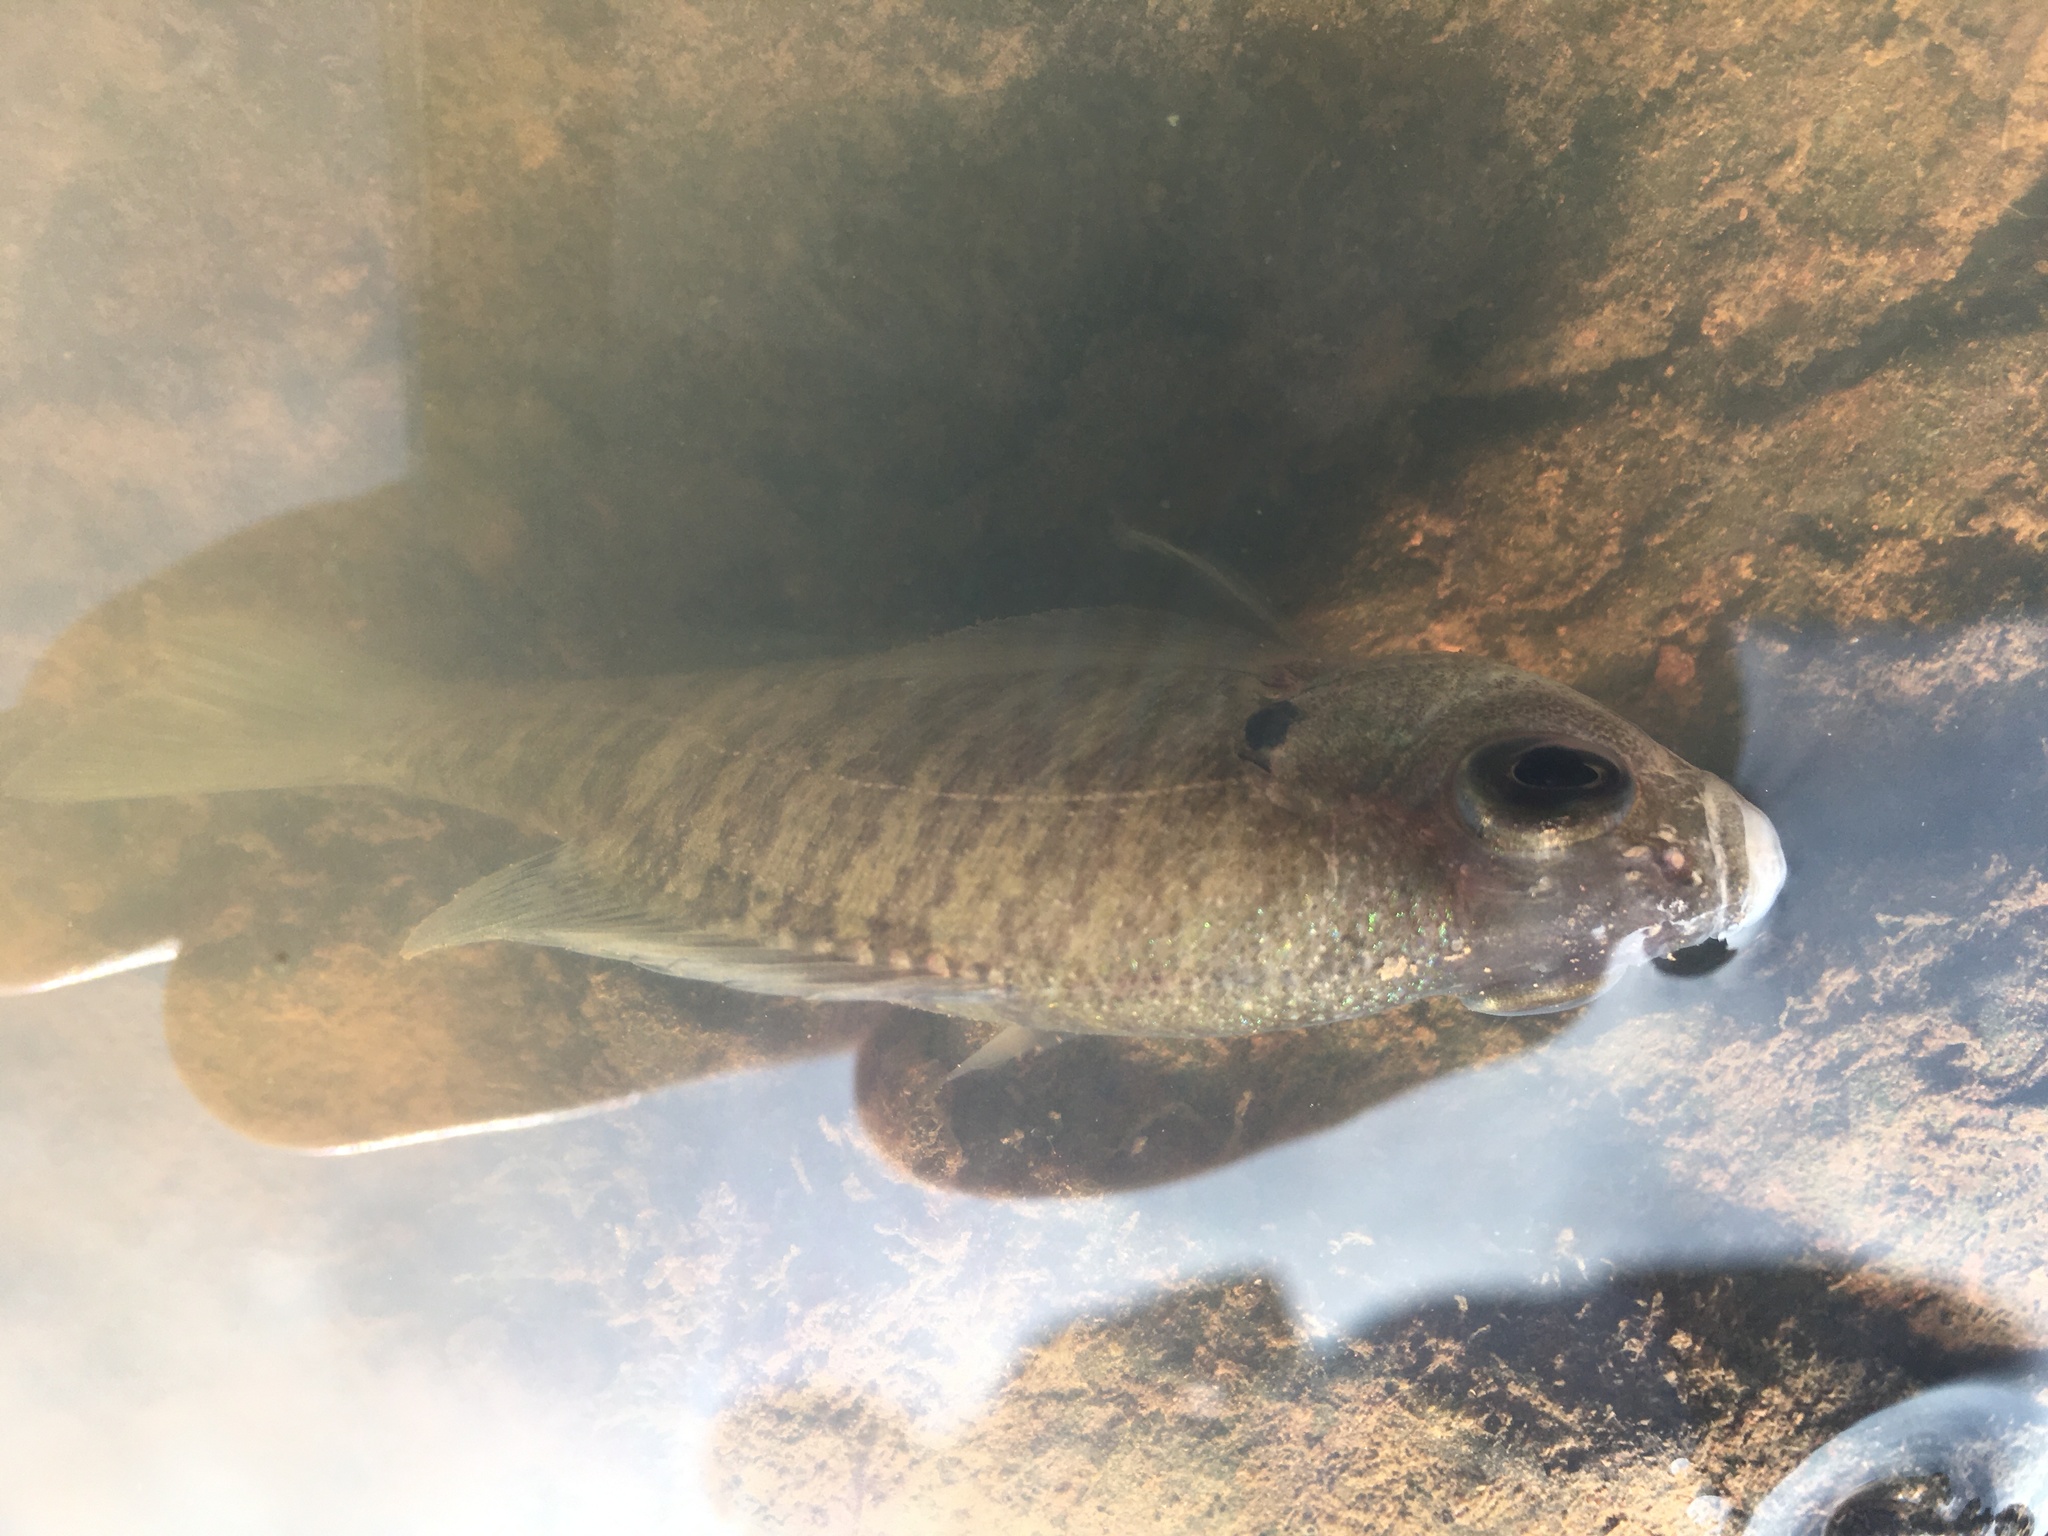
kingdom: Animalia
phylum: Chordata
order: Perciformes
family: Centrarchidae
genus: Lepomis
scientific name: Lepomis macrochirus
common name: Bluegill
